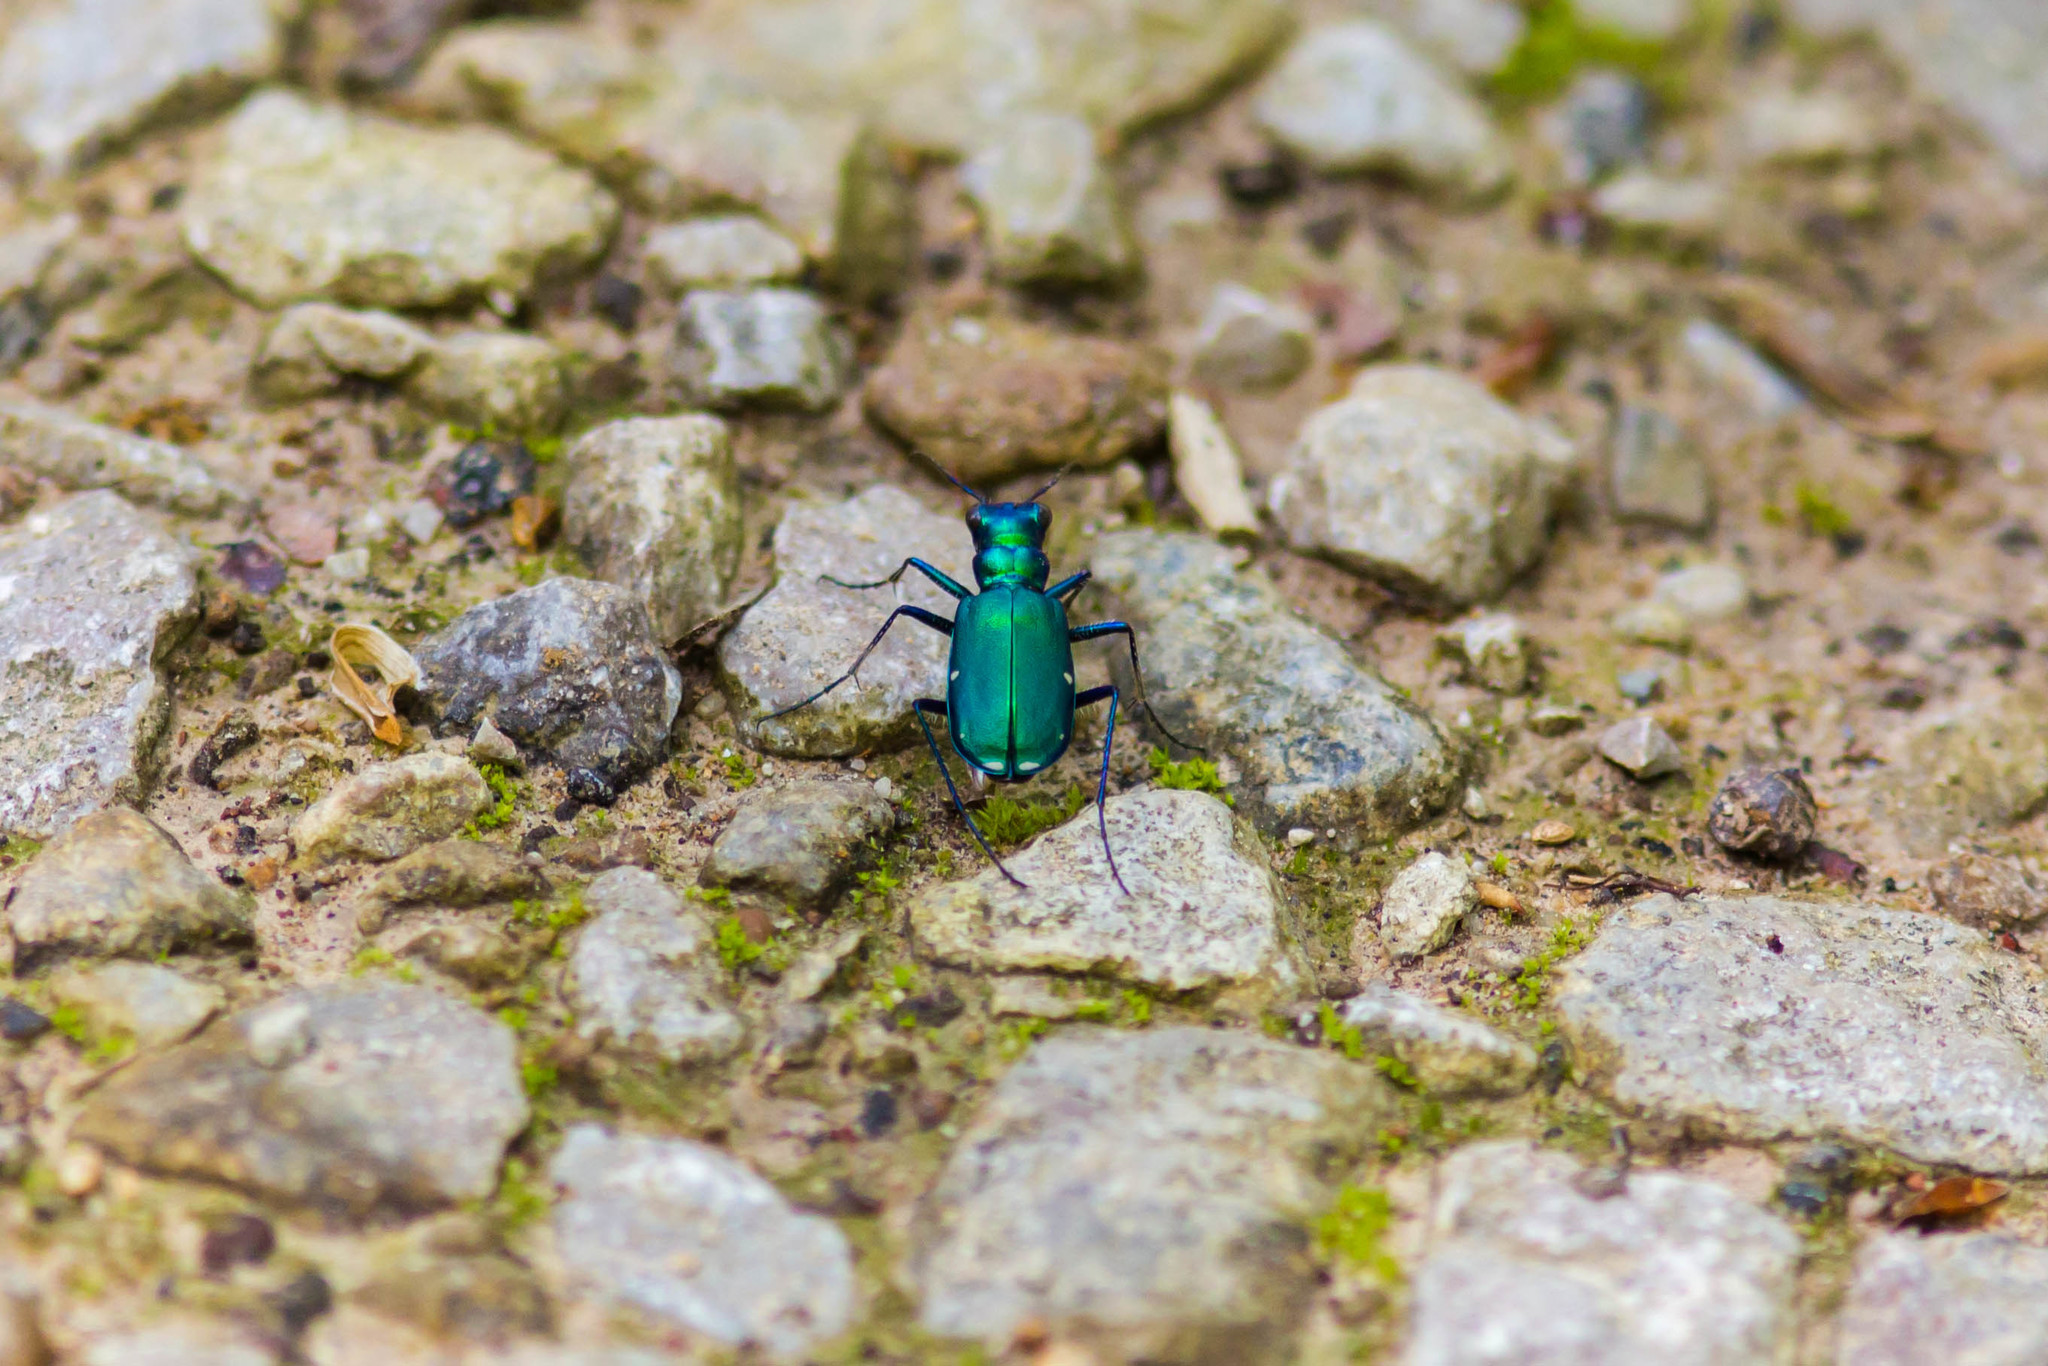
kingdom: Animalia
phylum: Arthropoda
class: Insecta
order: Coleoptera
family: Carabidae
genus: Cicindela
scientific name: Cicindela sexguttata
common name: Six-spotted tiger beetle
